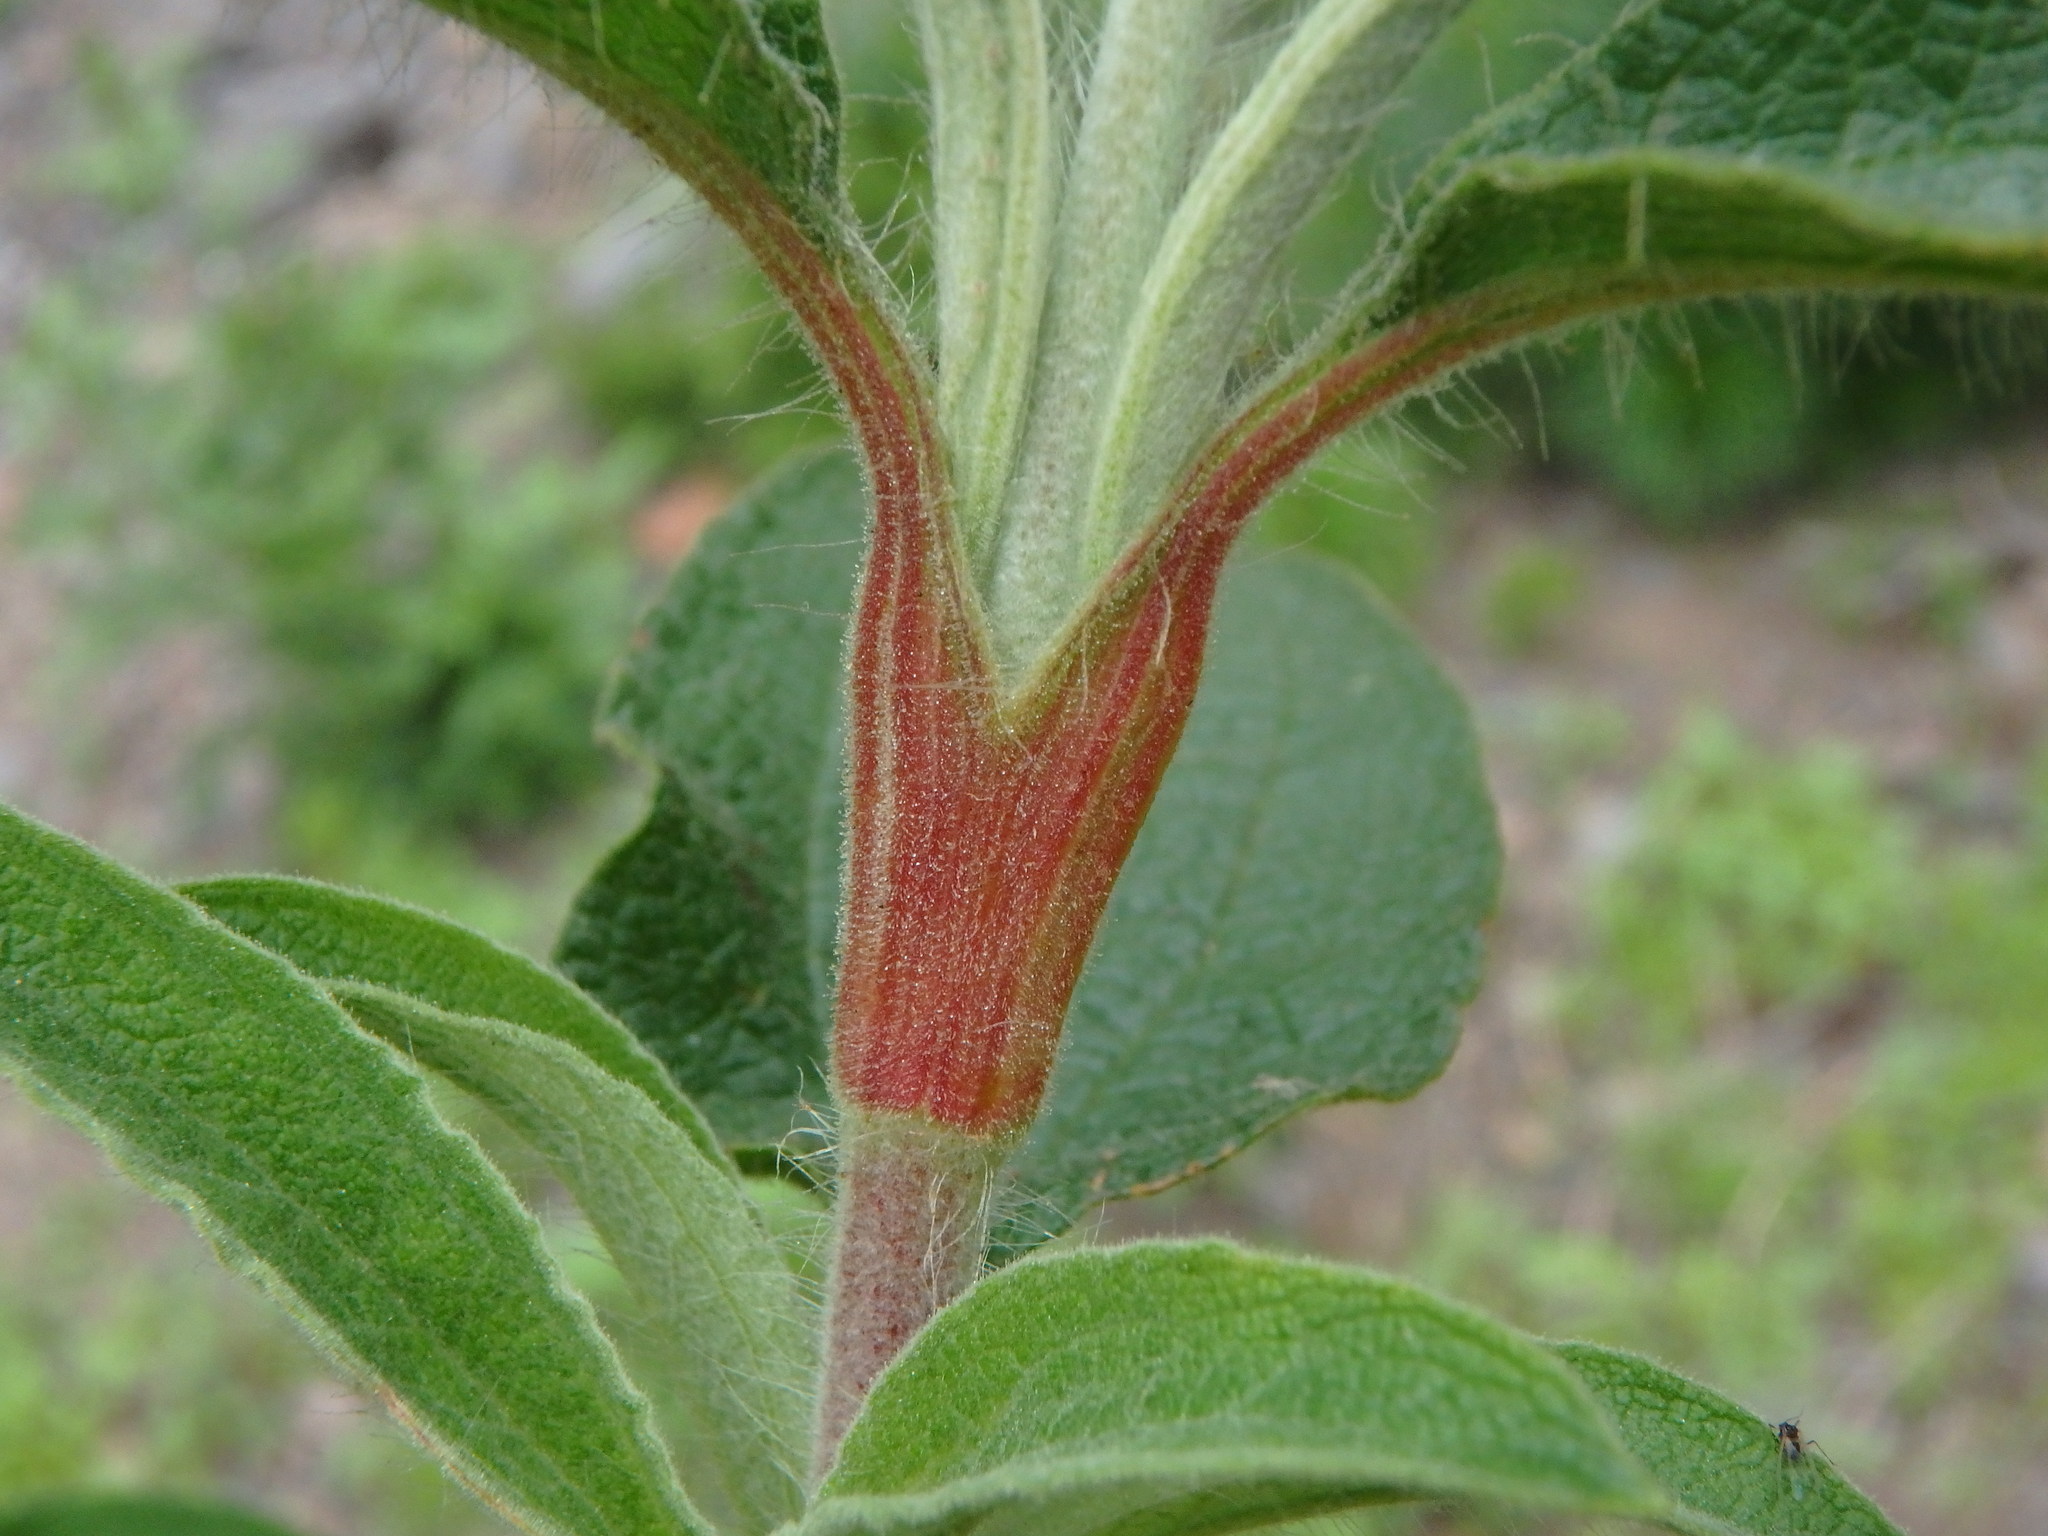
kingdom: Plantae
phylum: Tracheophyta
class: Magnoliopsida
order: Malvales
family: Cistaceae
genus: Cistus
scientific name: Cistus symphytifolius
